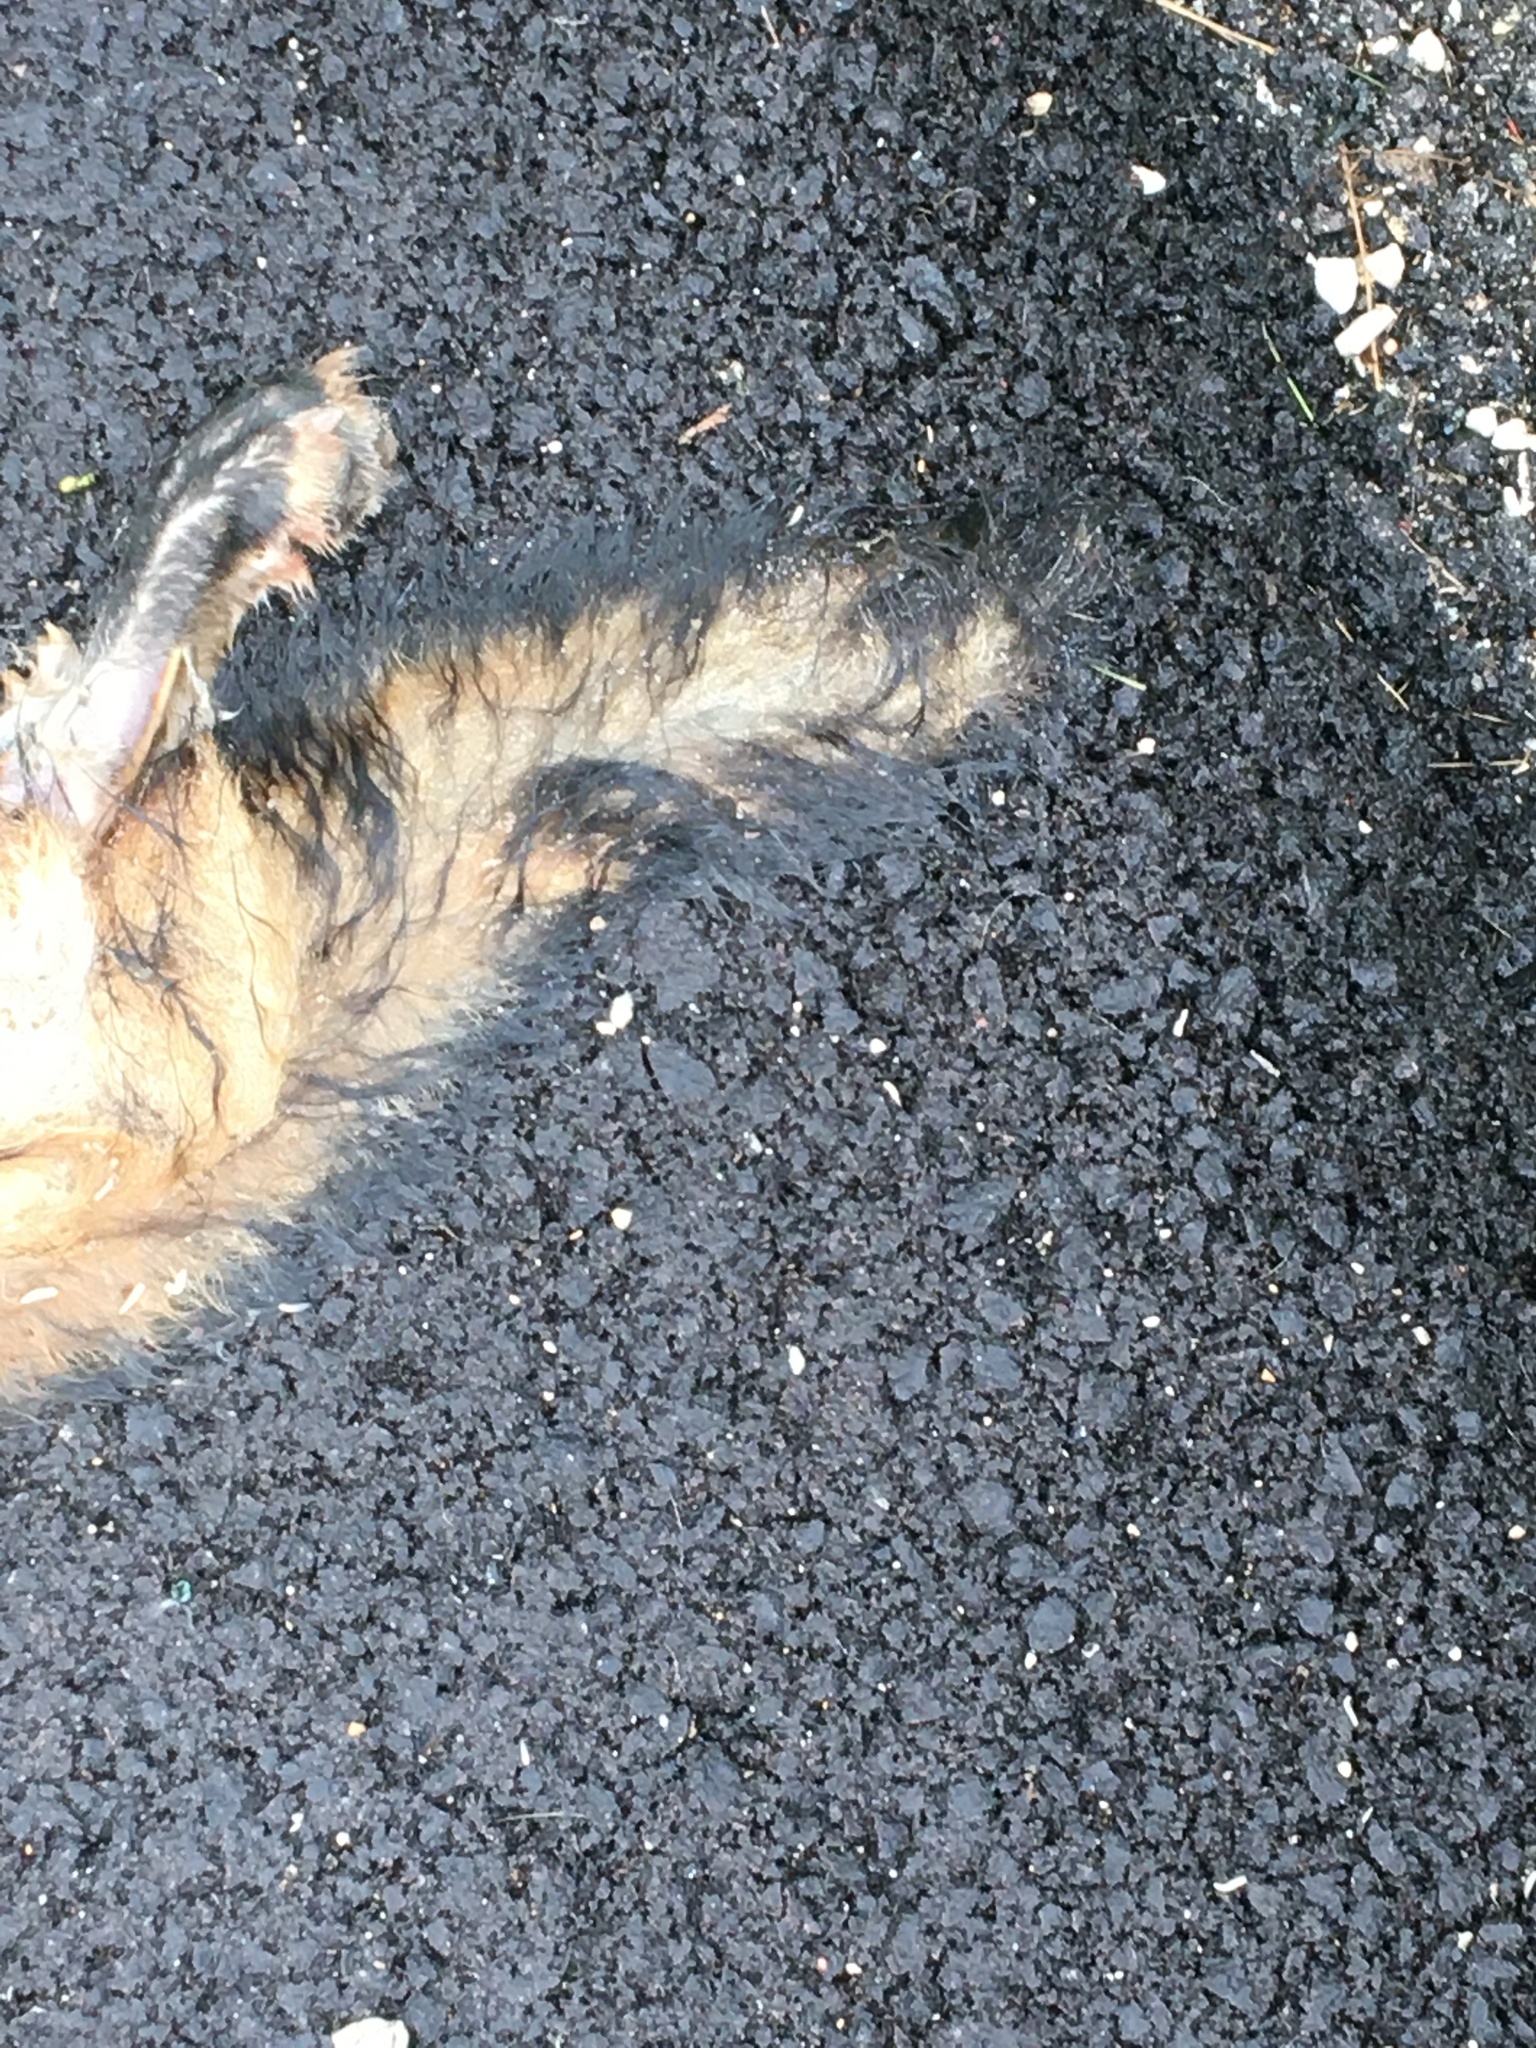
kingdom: Animalia
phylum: Chordata
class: Mammalia
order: Carnivora
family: Canidae
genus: Vulpes
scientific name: Vulpes vulpes
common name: Red fox
